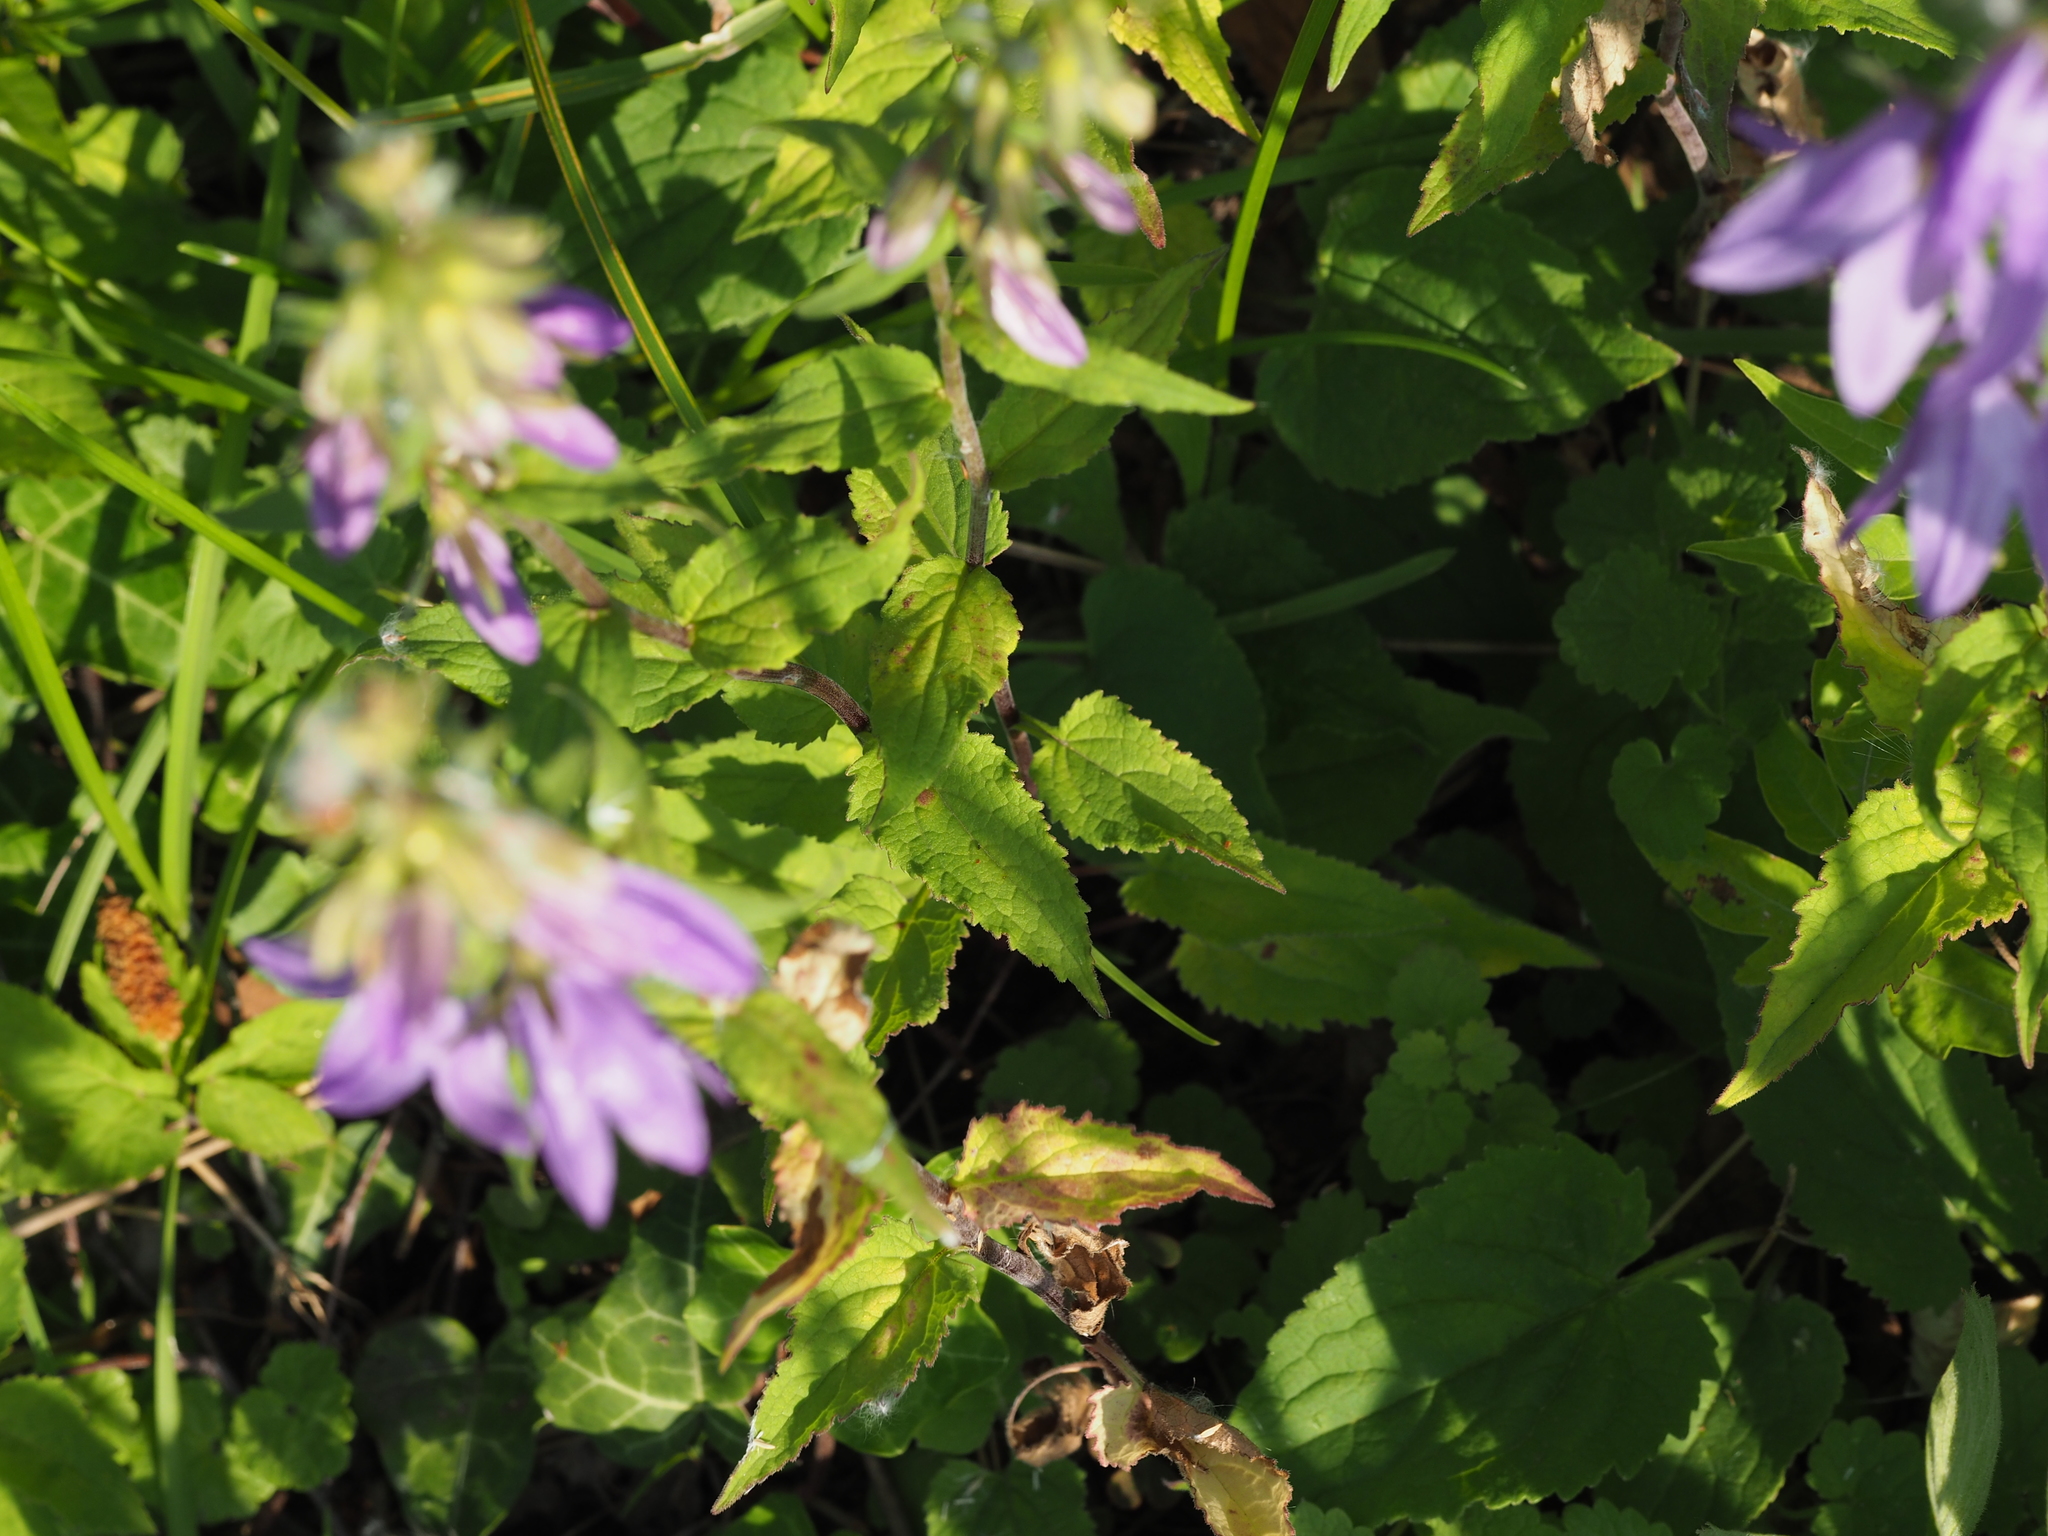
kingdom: Plantae
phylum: Tracheophyta
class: Magnoliopsida
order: Asterales
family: Campanulaceae
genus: Campanula
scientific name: Campanula rapunculoides
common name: Creeping bellflower
